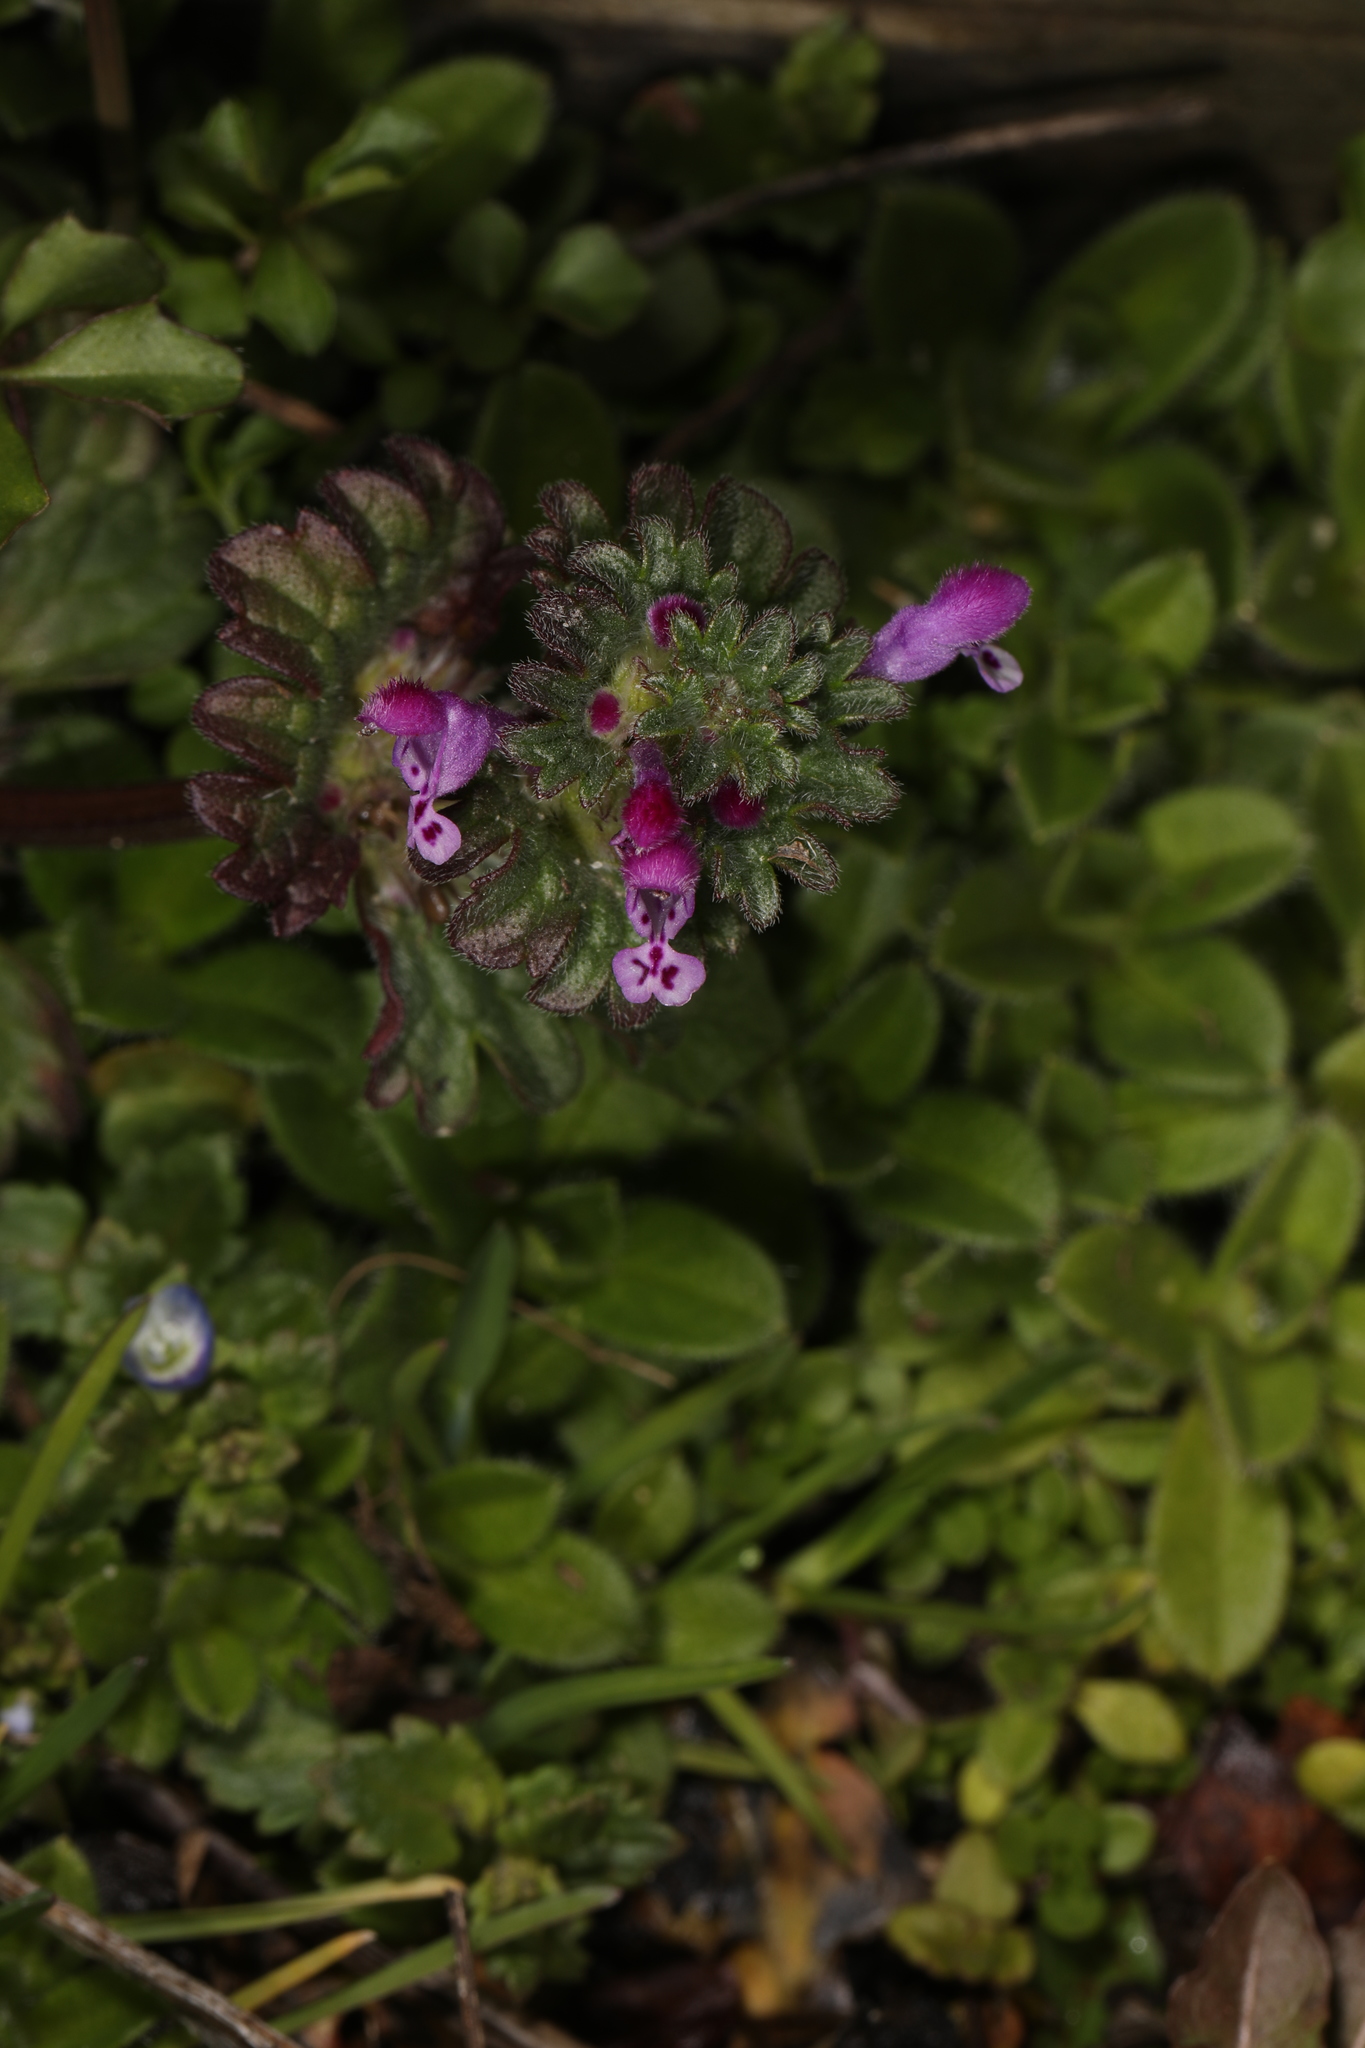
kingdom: Plantae
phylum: Tracheophyta
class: Magnoliopsida
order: Lamiales
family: Lamiaceae
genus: Lamium
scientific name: Lamium amplexicaule
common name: Henbit dead-nettle
